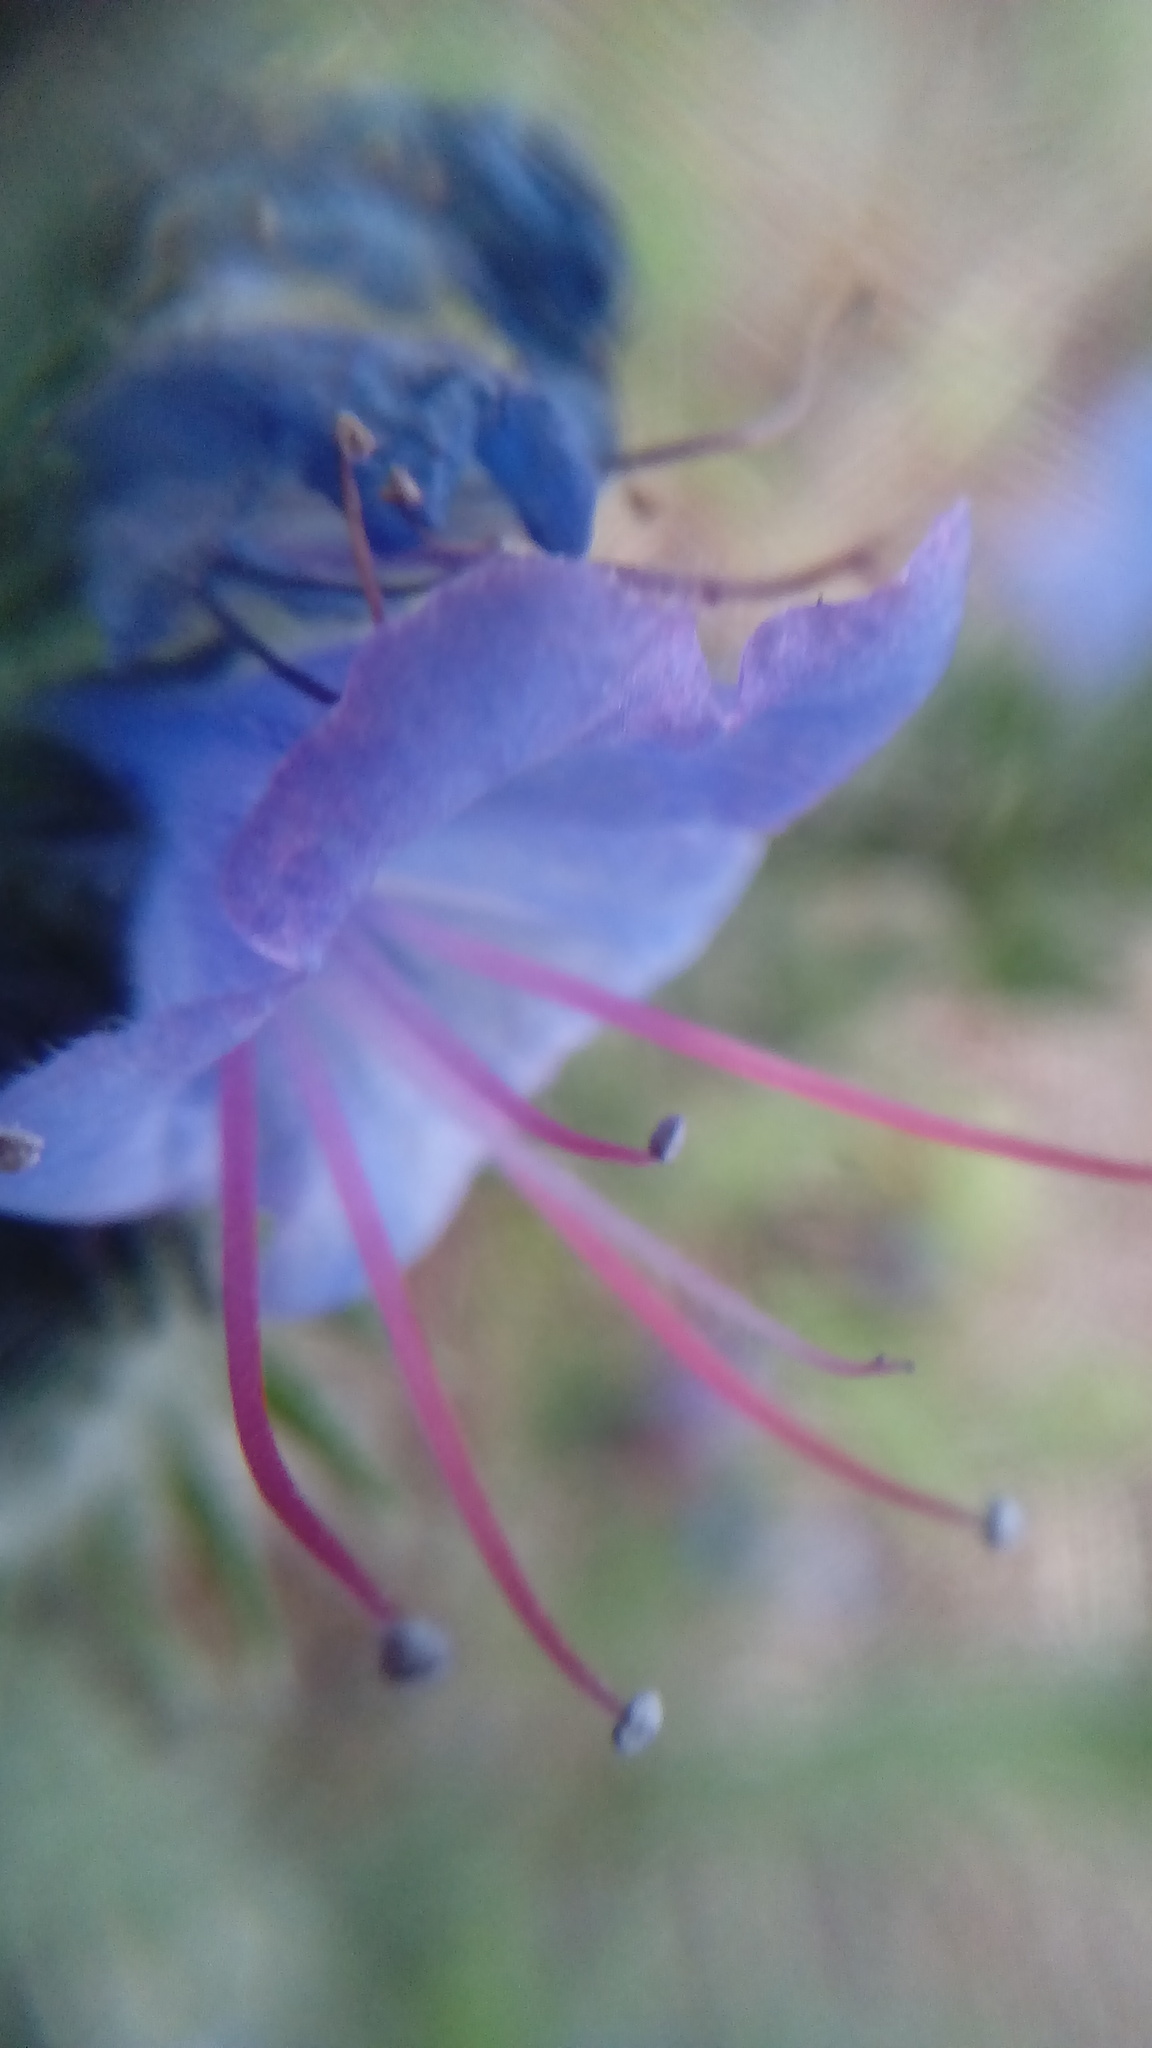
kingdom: Plantae
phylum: Tracheophyta
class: Magnoliopsida
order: Boraginales
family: Boraginaceae
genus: Echium
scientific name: Echium vulgare
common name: Common viper's bugloss
